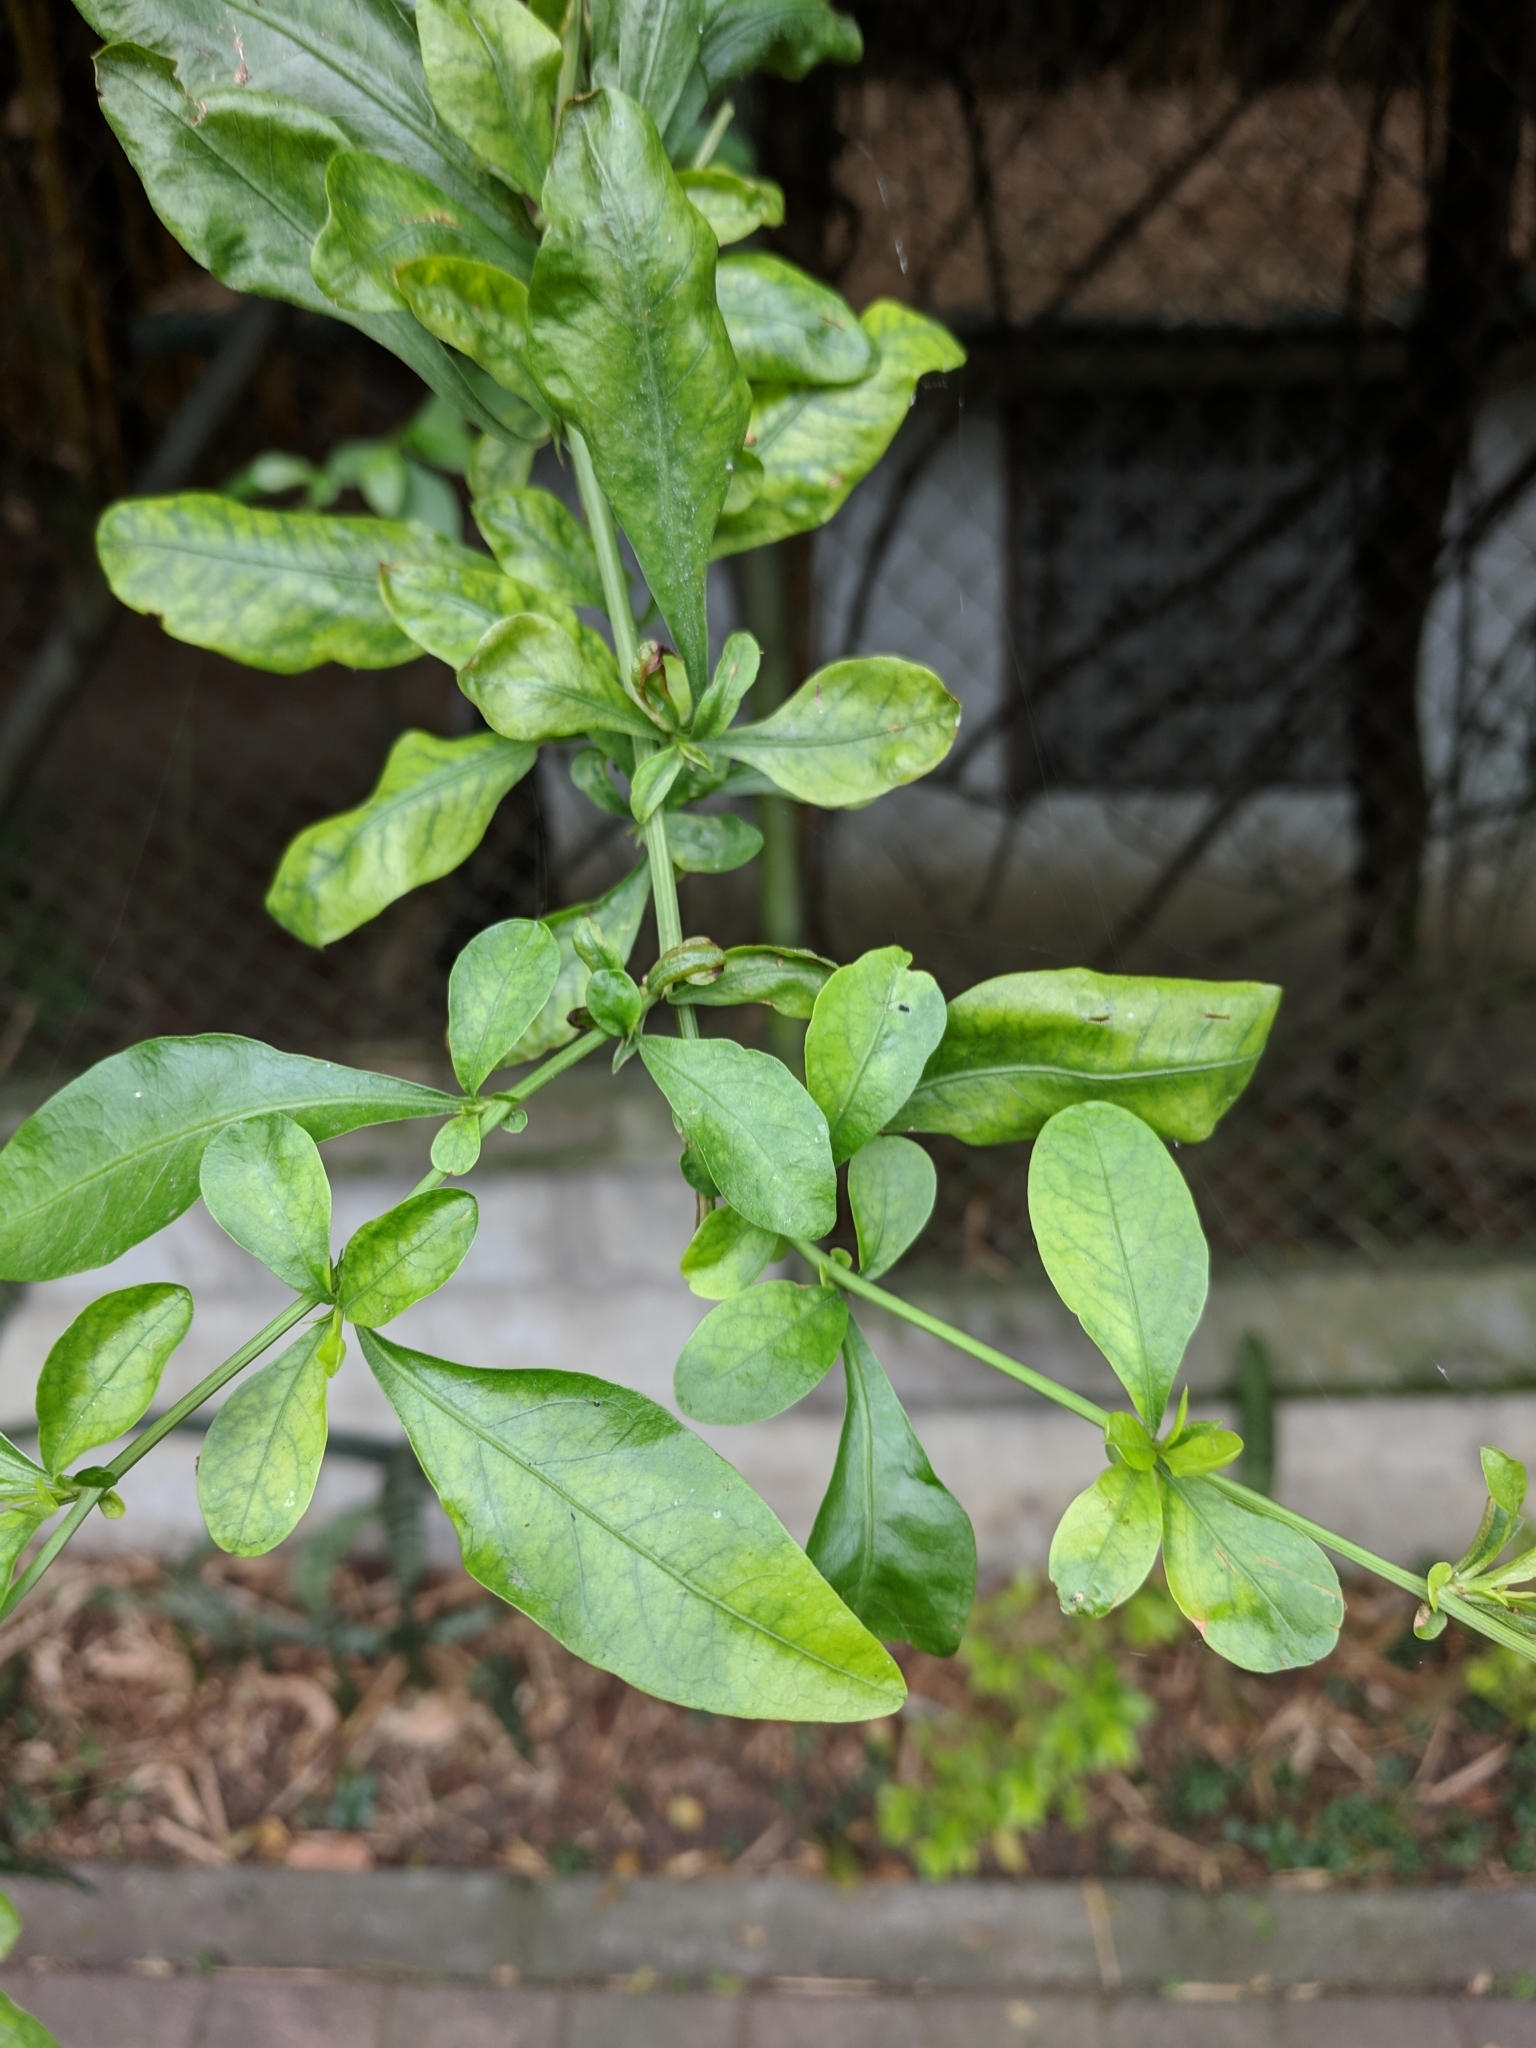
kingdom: Plantae
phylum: Tracheophyta
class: Magnoliopsida
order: Caryophyllales
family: Plumbaginaceae
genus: Plumbago
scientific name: Plumbago auriculata
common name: Cape leadwort
